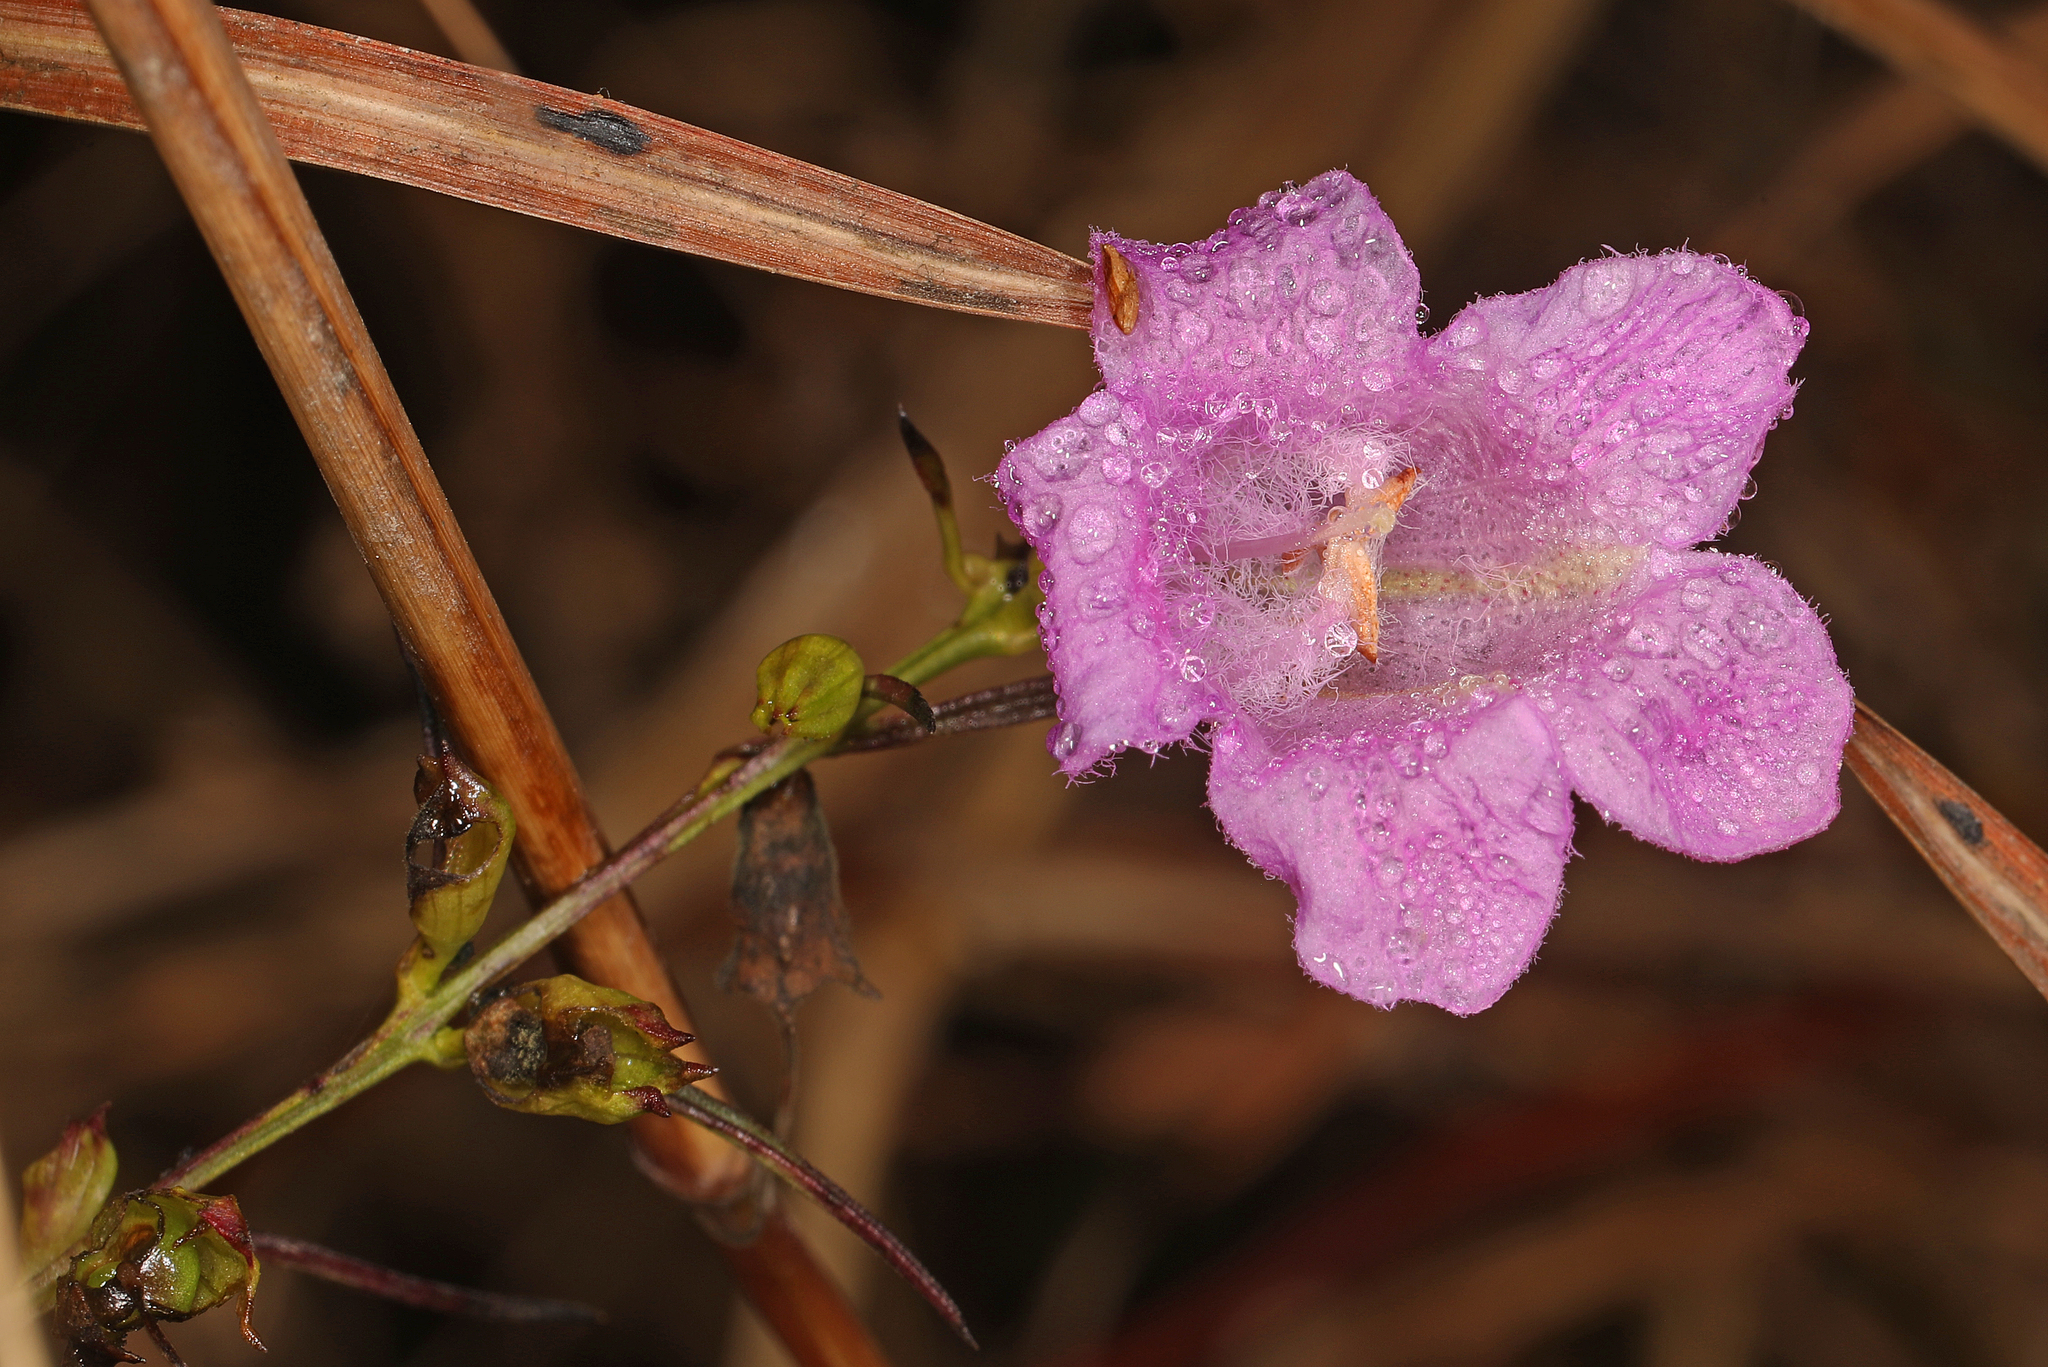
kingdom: Plantae
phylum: Tracheophyta
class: Magnoliopsida
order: Lamiales
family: Orobanchaceae
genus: Agalinis
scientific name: Agalinis purpurea
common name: Purple false foxglove
